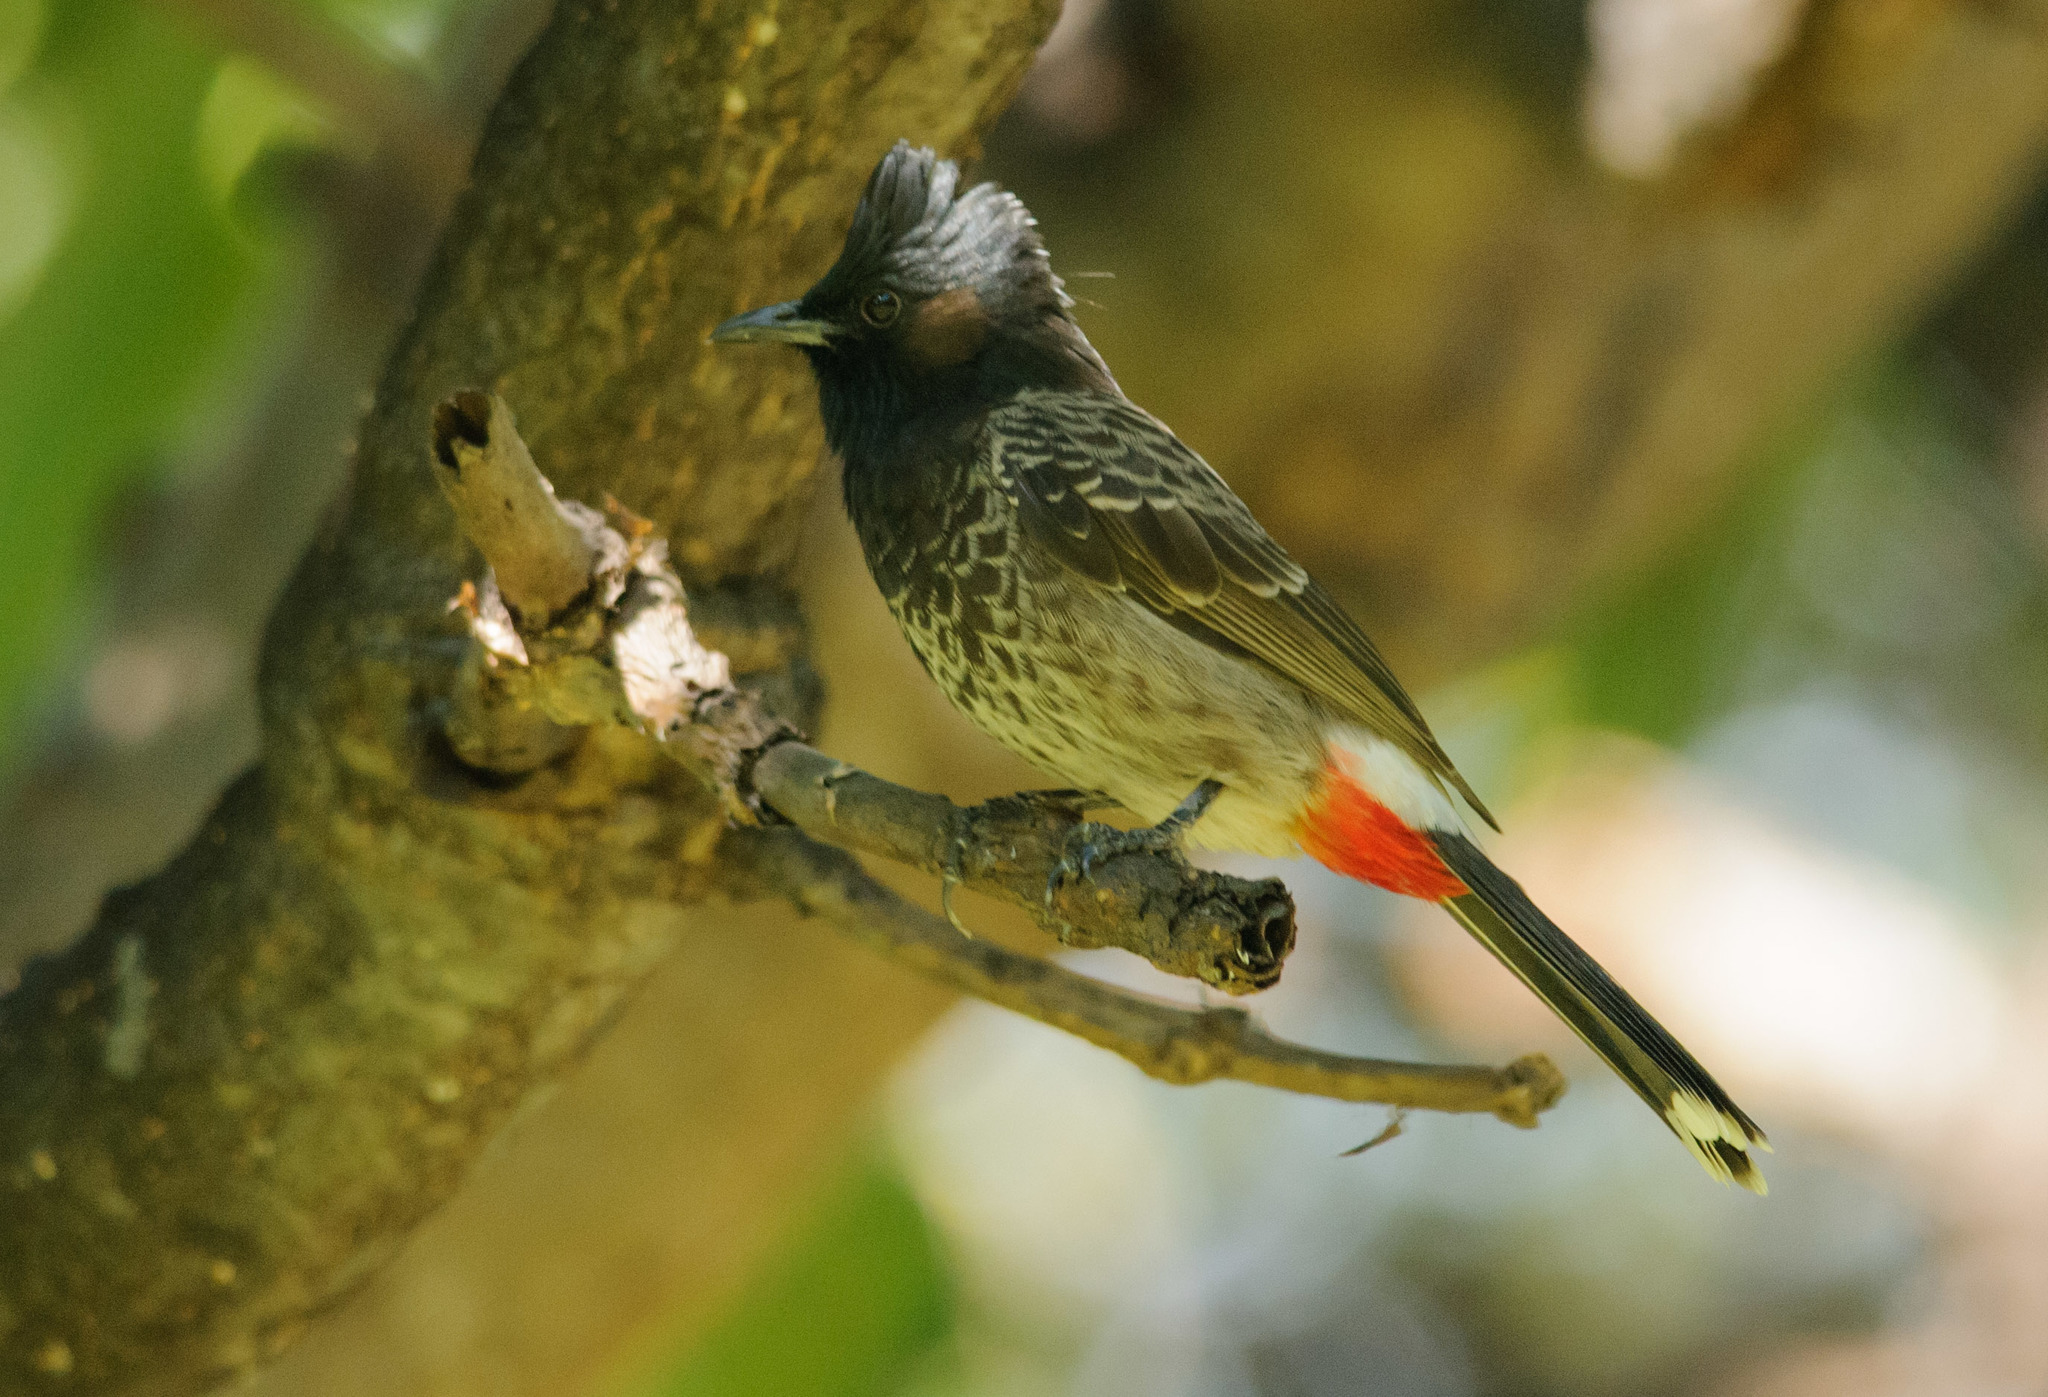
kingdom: Animalia
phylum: Chordata
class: Aves
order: Passeriformes
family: Pycnonotidae
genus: Pycnonotus
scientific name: Pycnonotus cafer
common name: Red-vented bulbul
